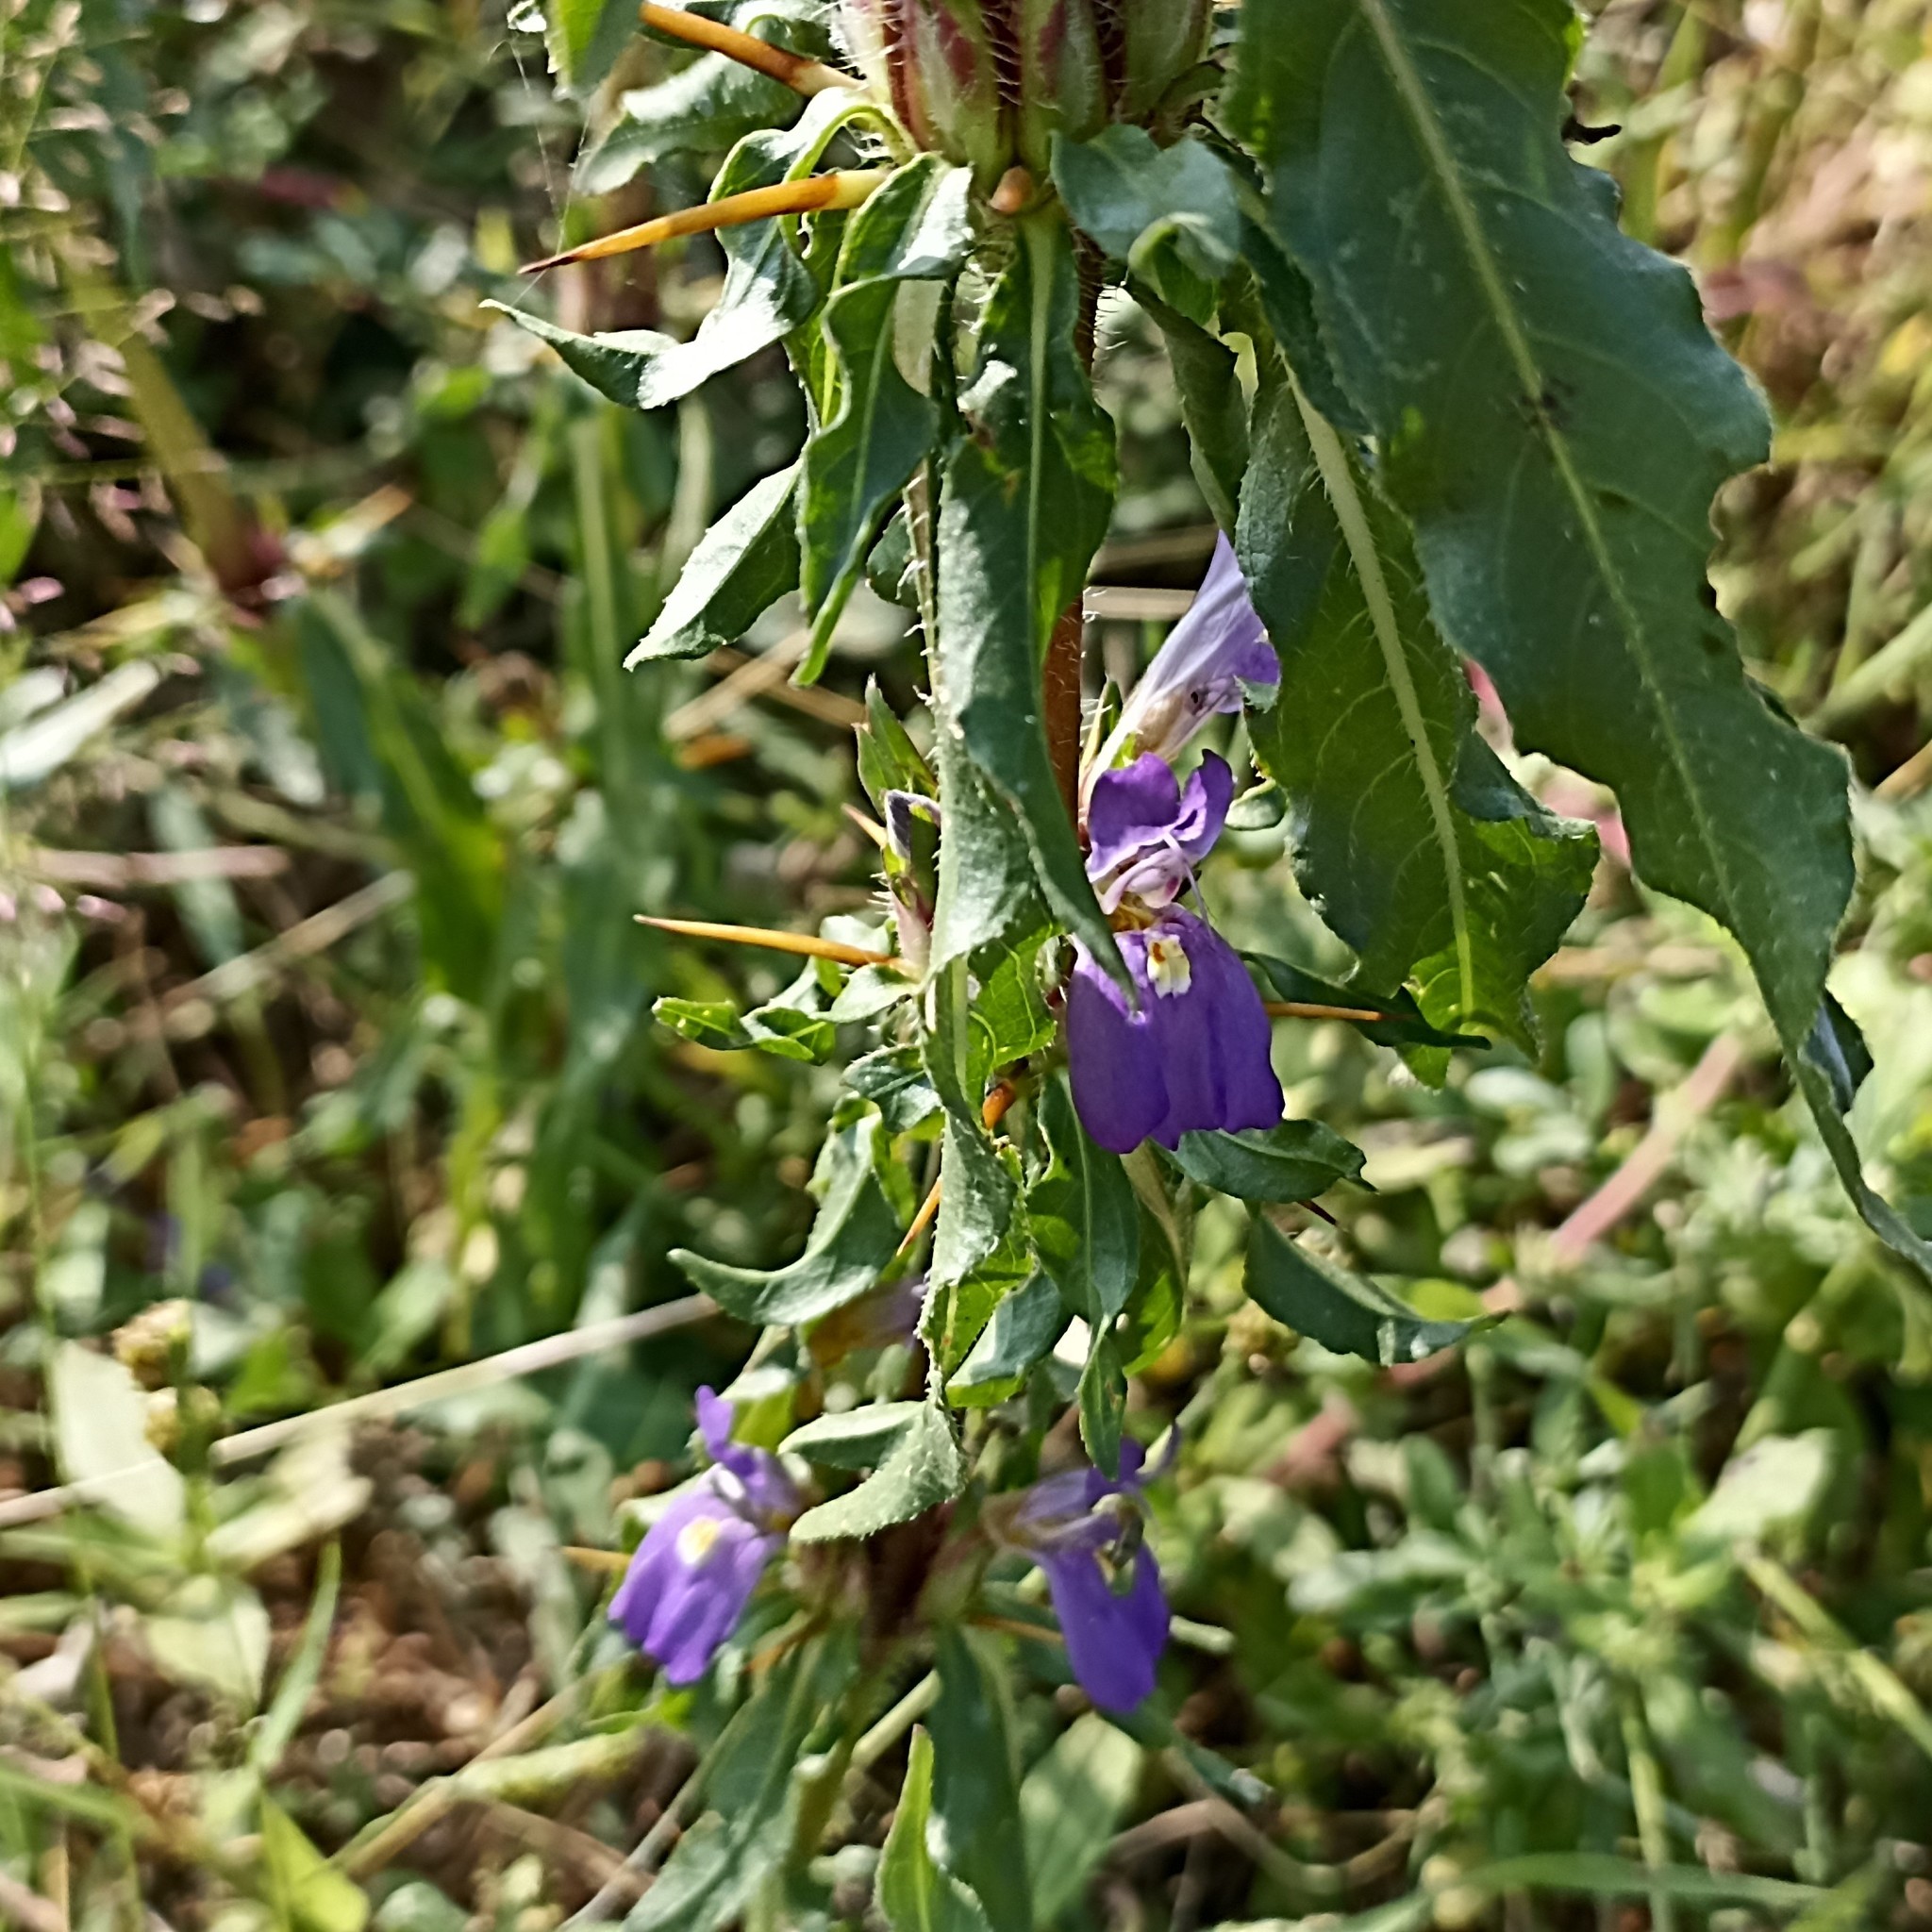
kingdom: Plantae
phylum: Tracheophyta
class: Magnoliopsida
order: Lamiales
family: Acanthaceae
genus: Hygrophila
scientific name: Hygrophila auriculata
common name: Hygrophila
